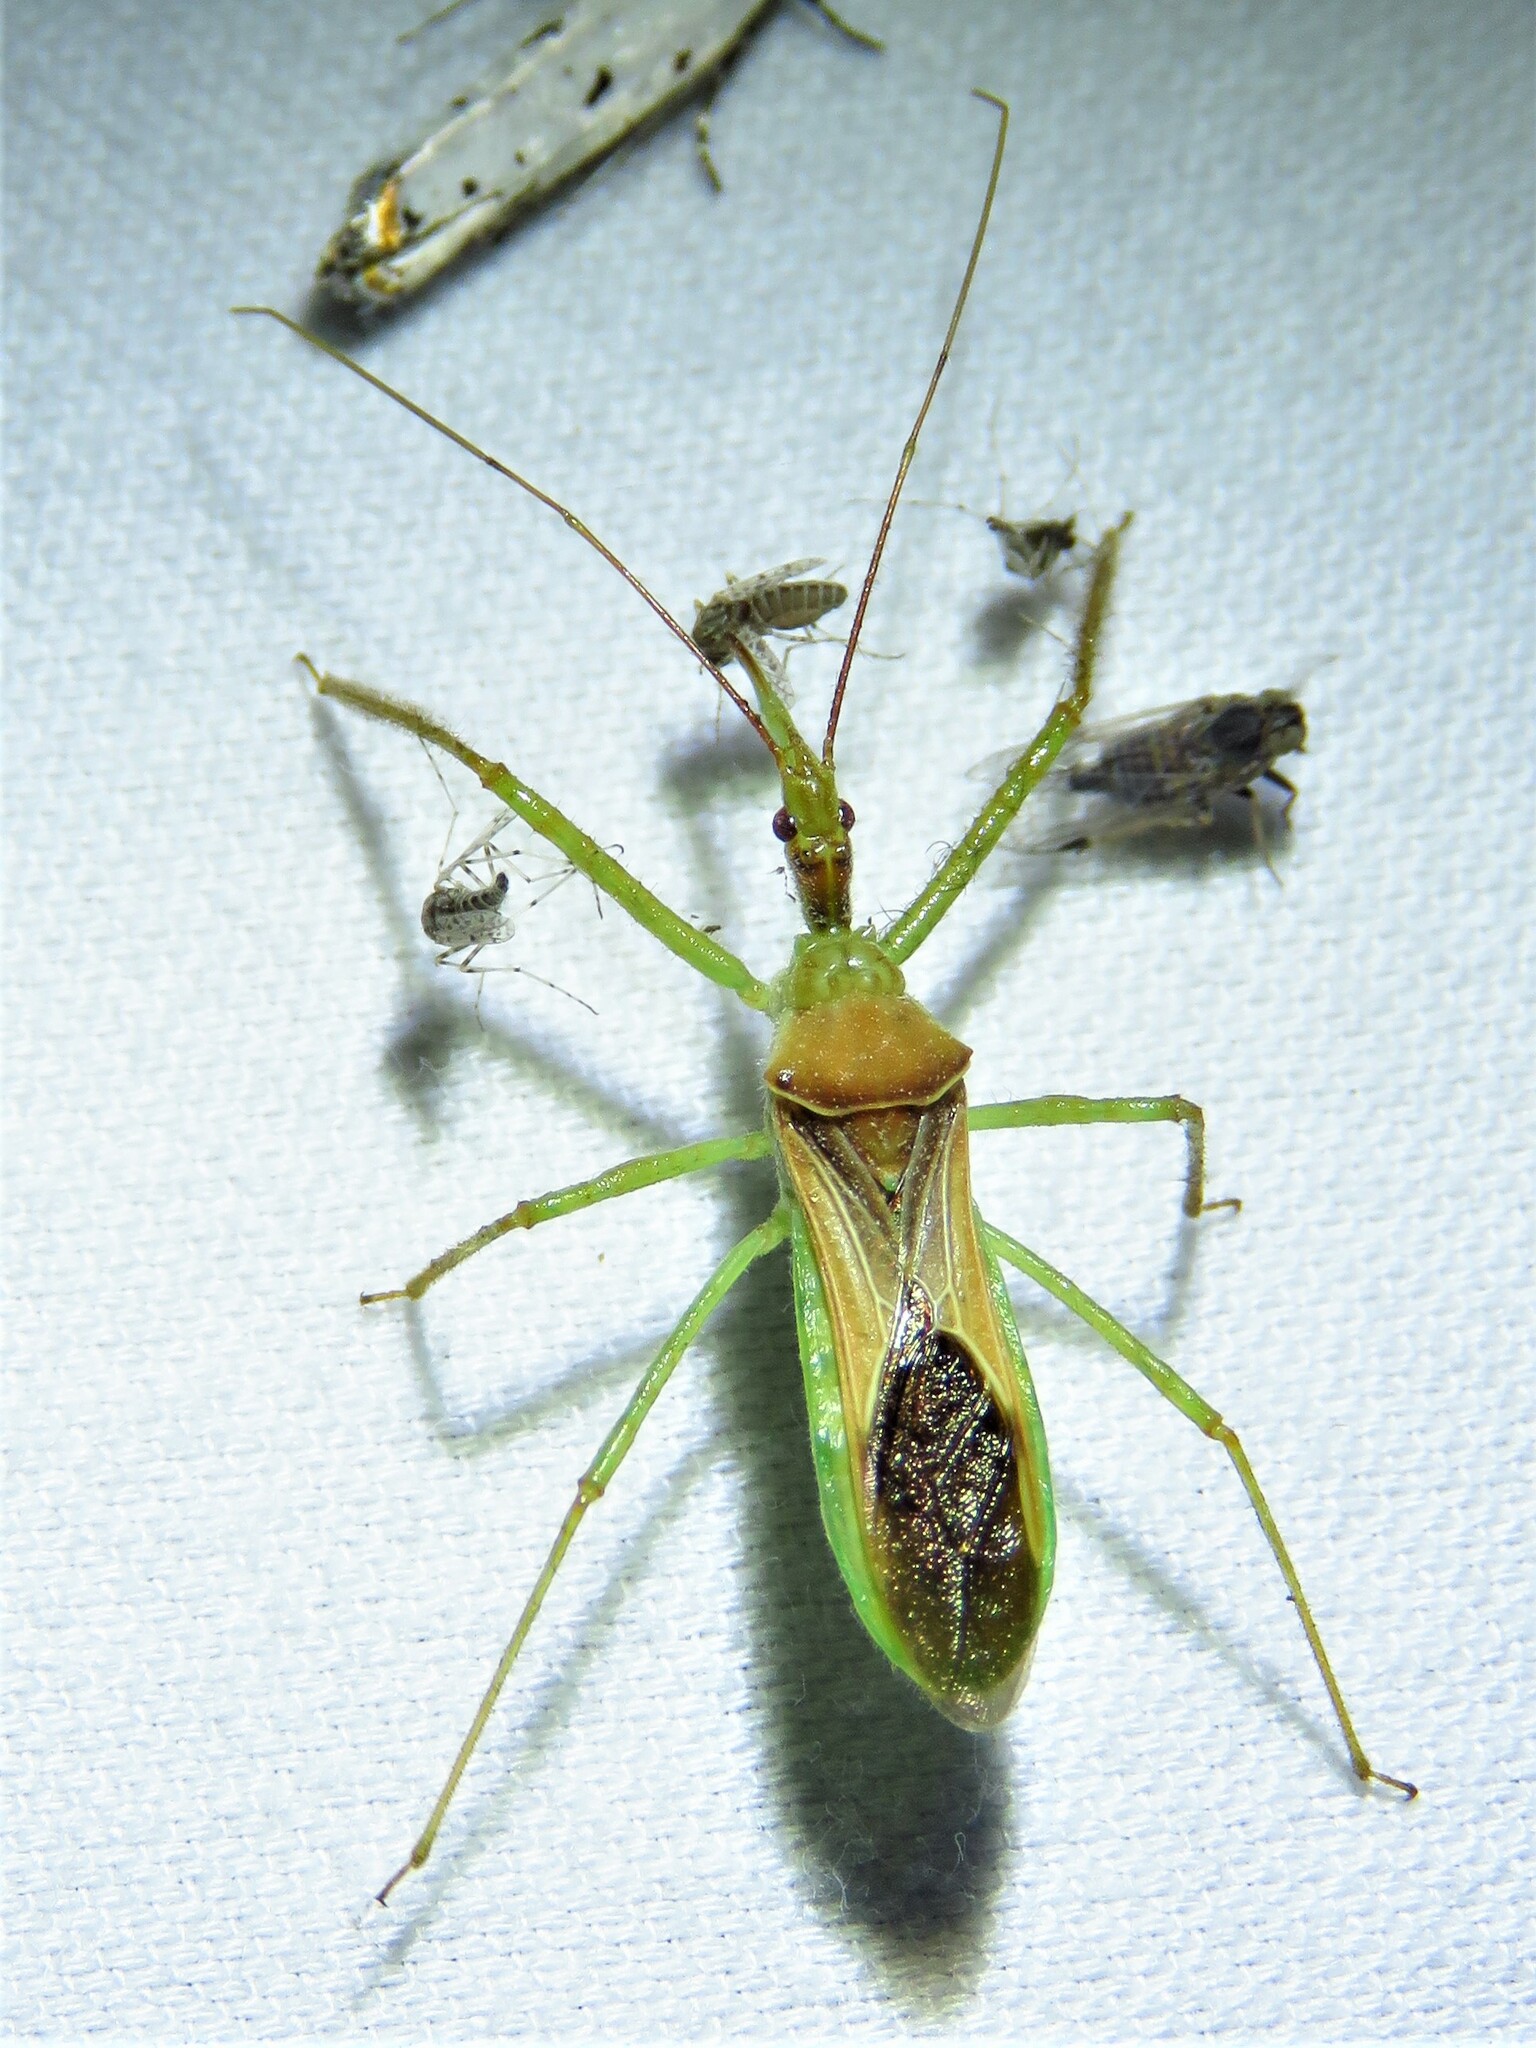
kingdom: Animalia
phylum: Arthropoda
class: Insecta
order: Hemiptera
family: Reduviidae
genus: Zelus
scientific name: Zelus renardii
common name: Assassin bug
